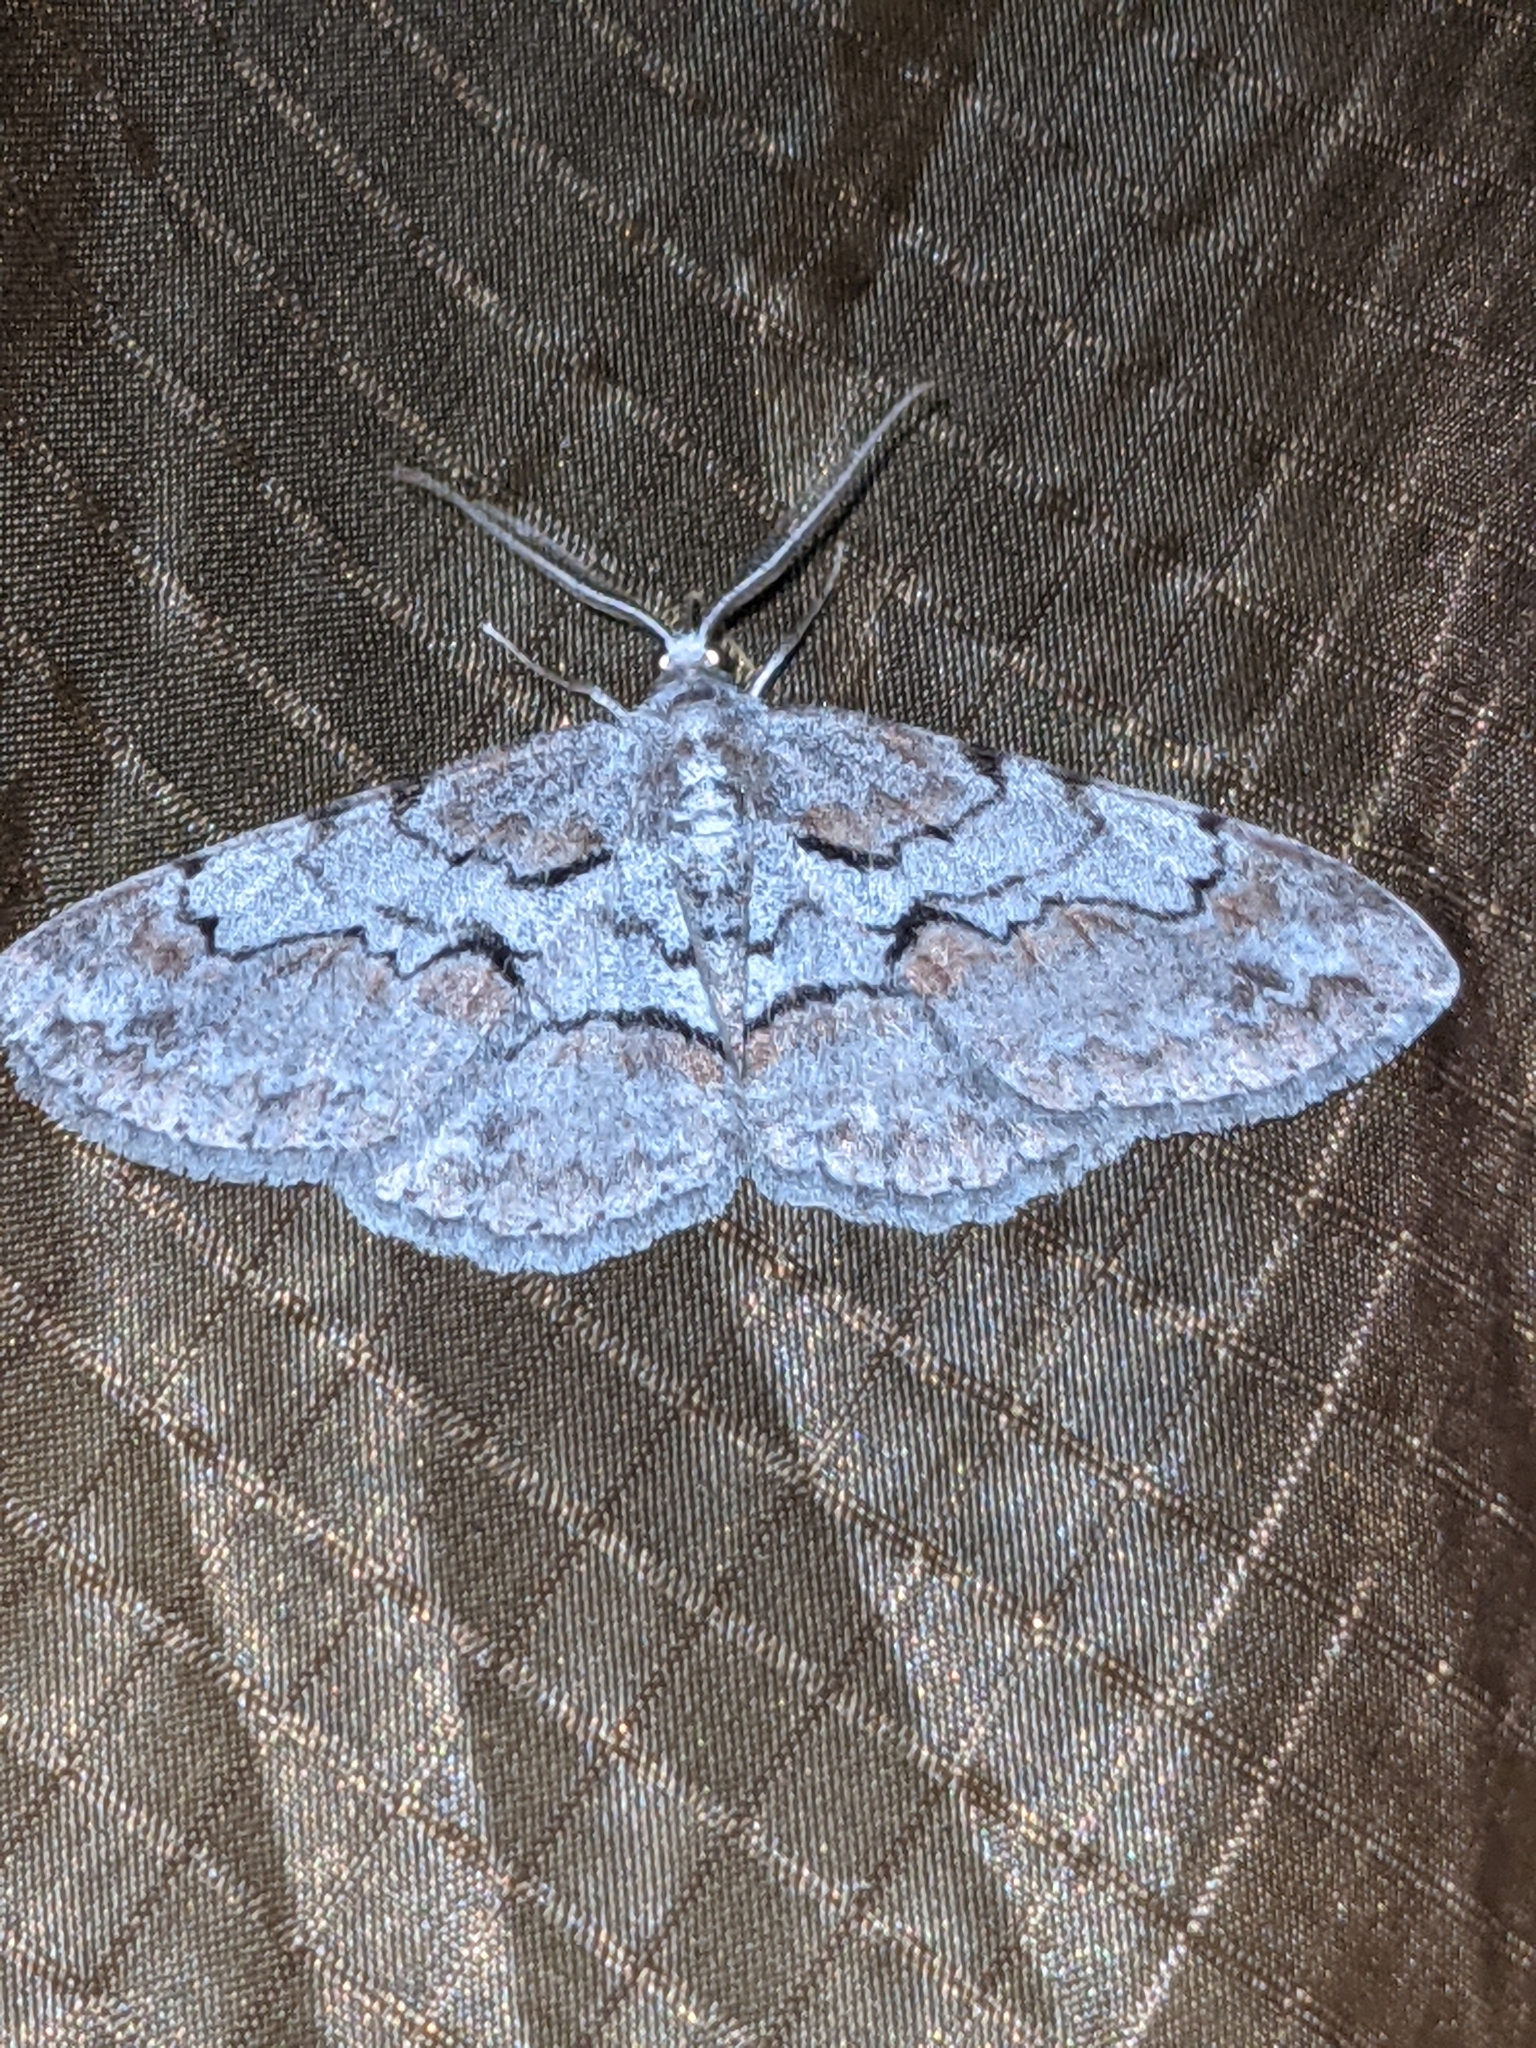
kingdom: Animalia
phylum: Arthropoda
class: Insecta
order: Lepidoptera
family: Geometridae
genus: Iridopsis
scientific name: Iridopsis vellivolata
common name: Large purplish gray
